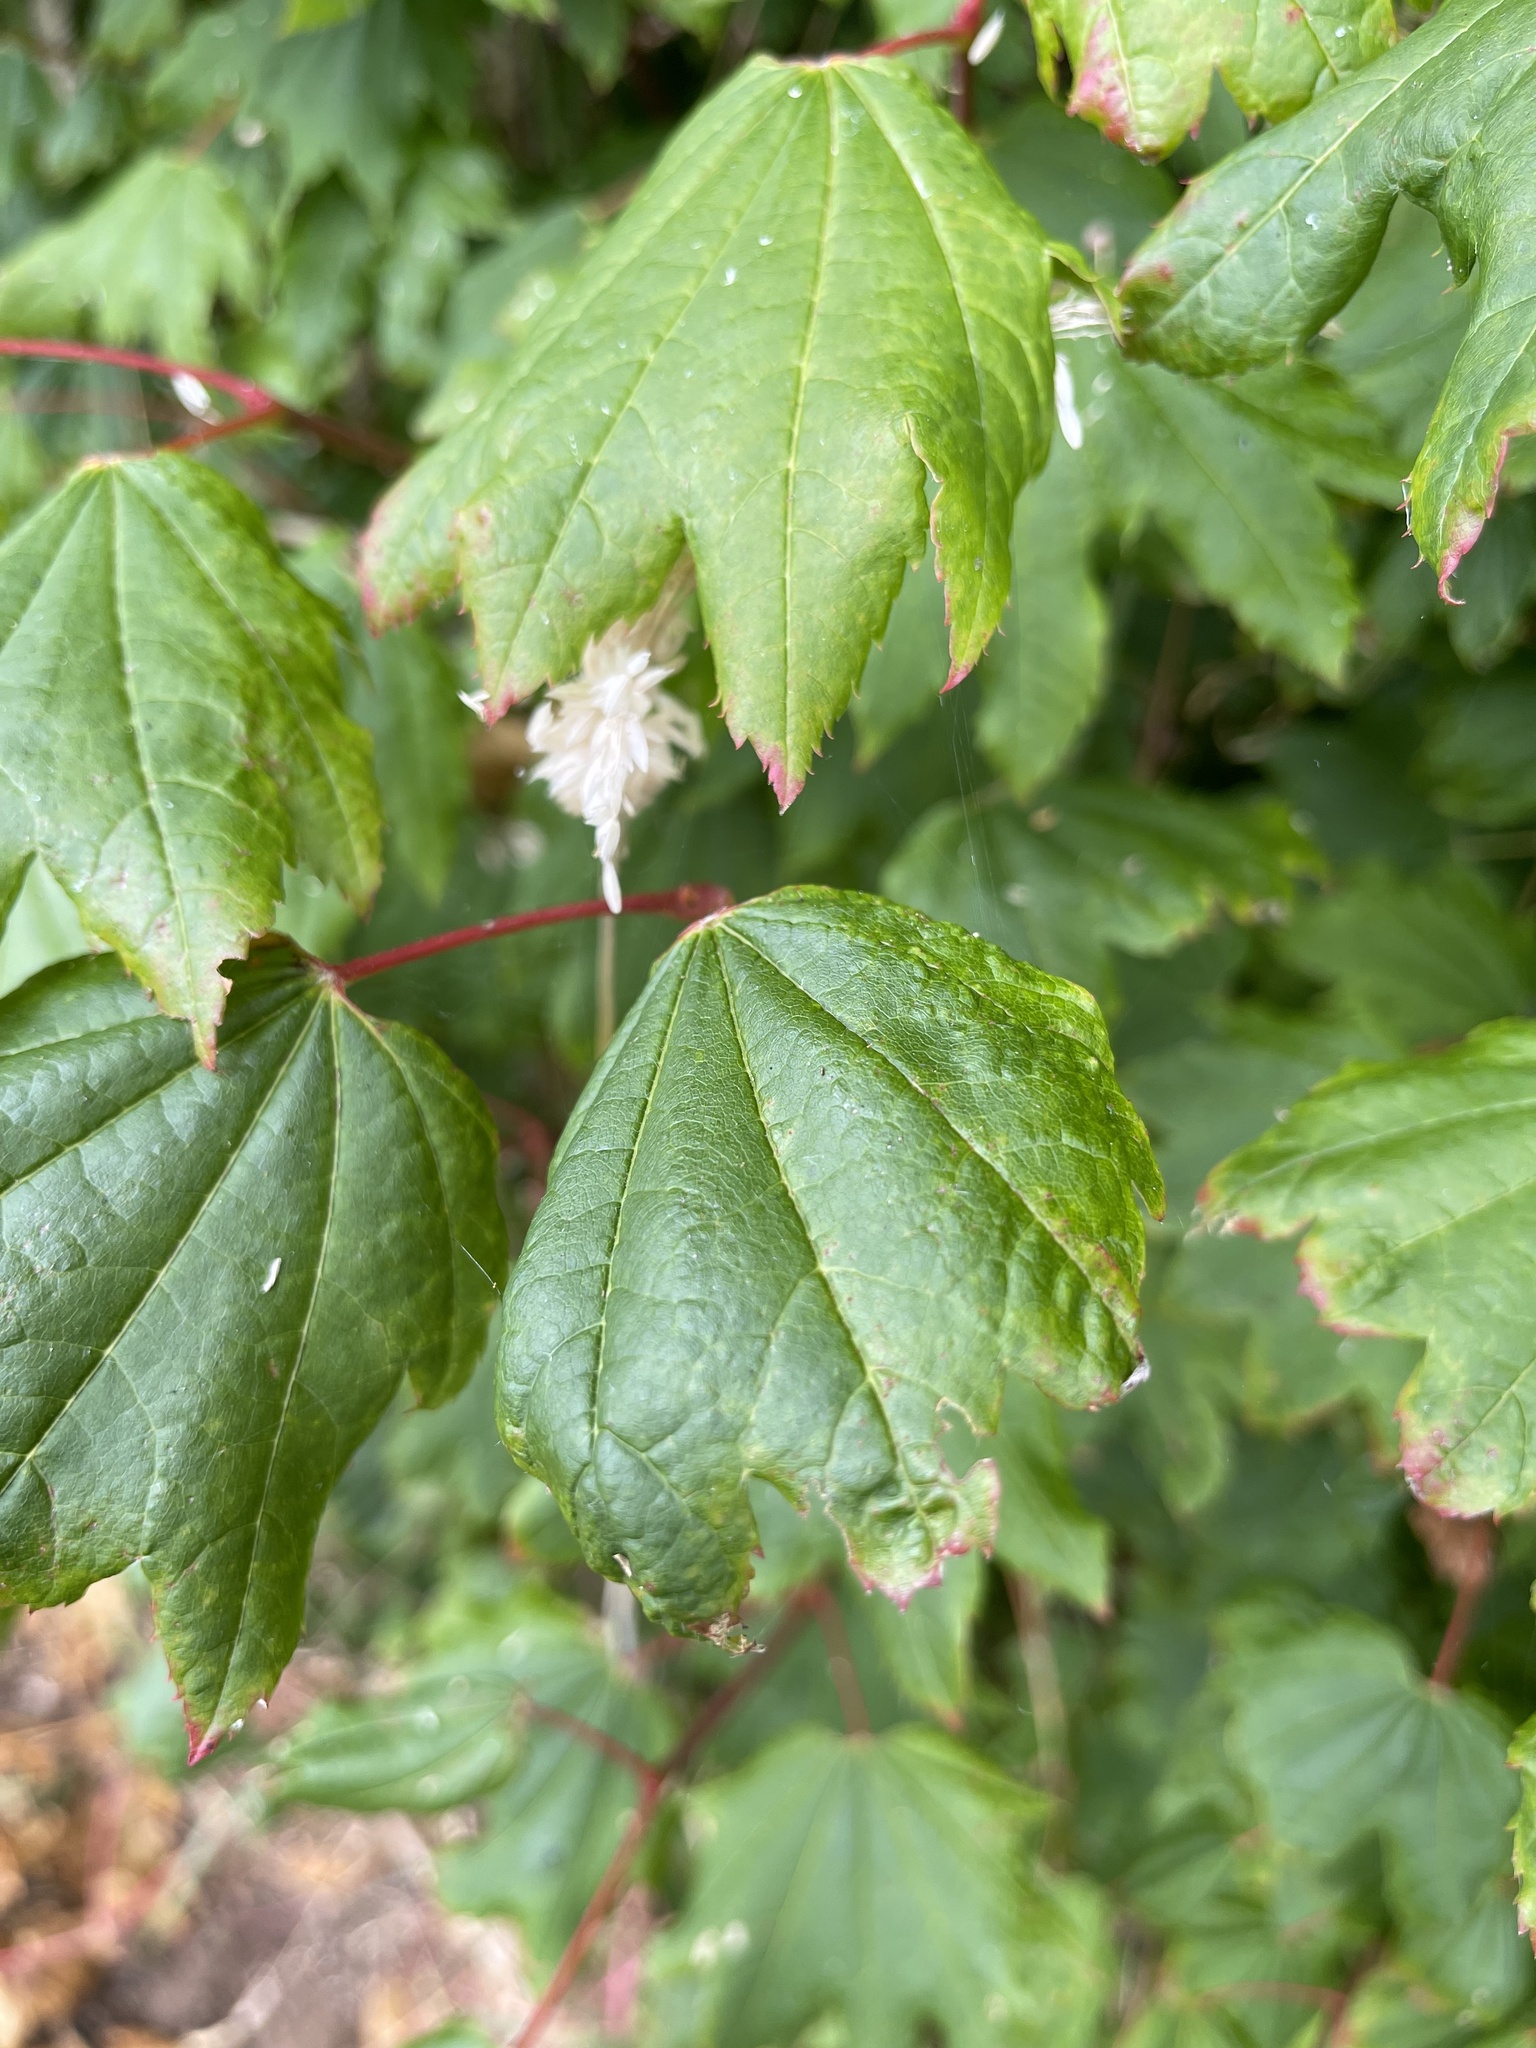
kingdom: Plantae
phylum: Tracheophyta
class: Magnoliopsida
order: Sapindales
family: Sapindaceae
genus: Acer
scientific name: Acer circinatum
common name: Vine maple
